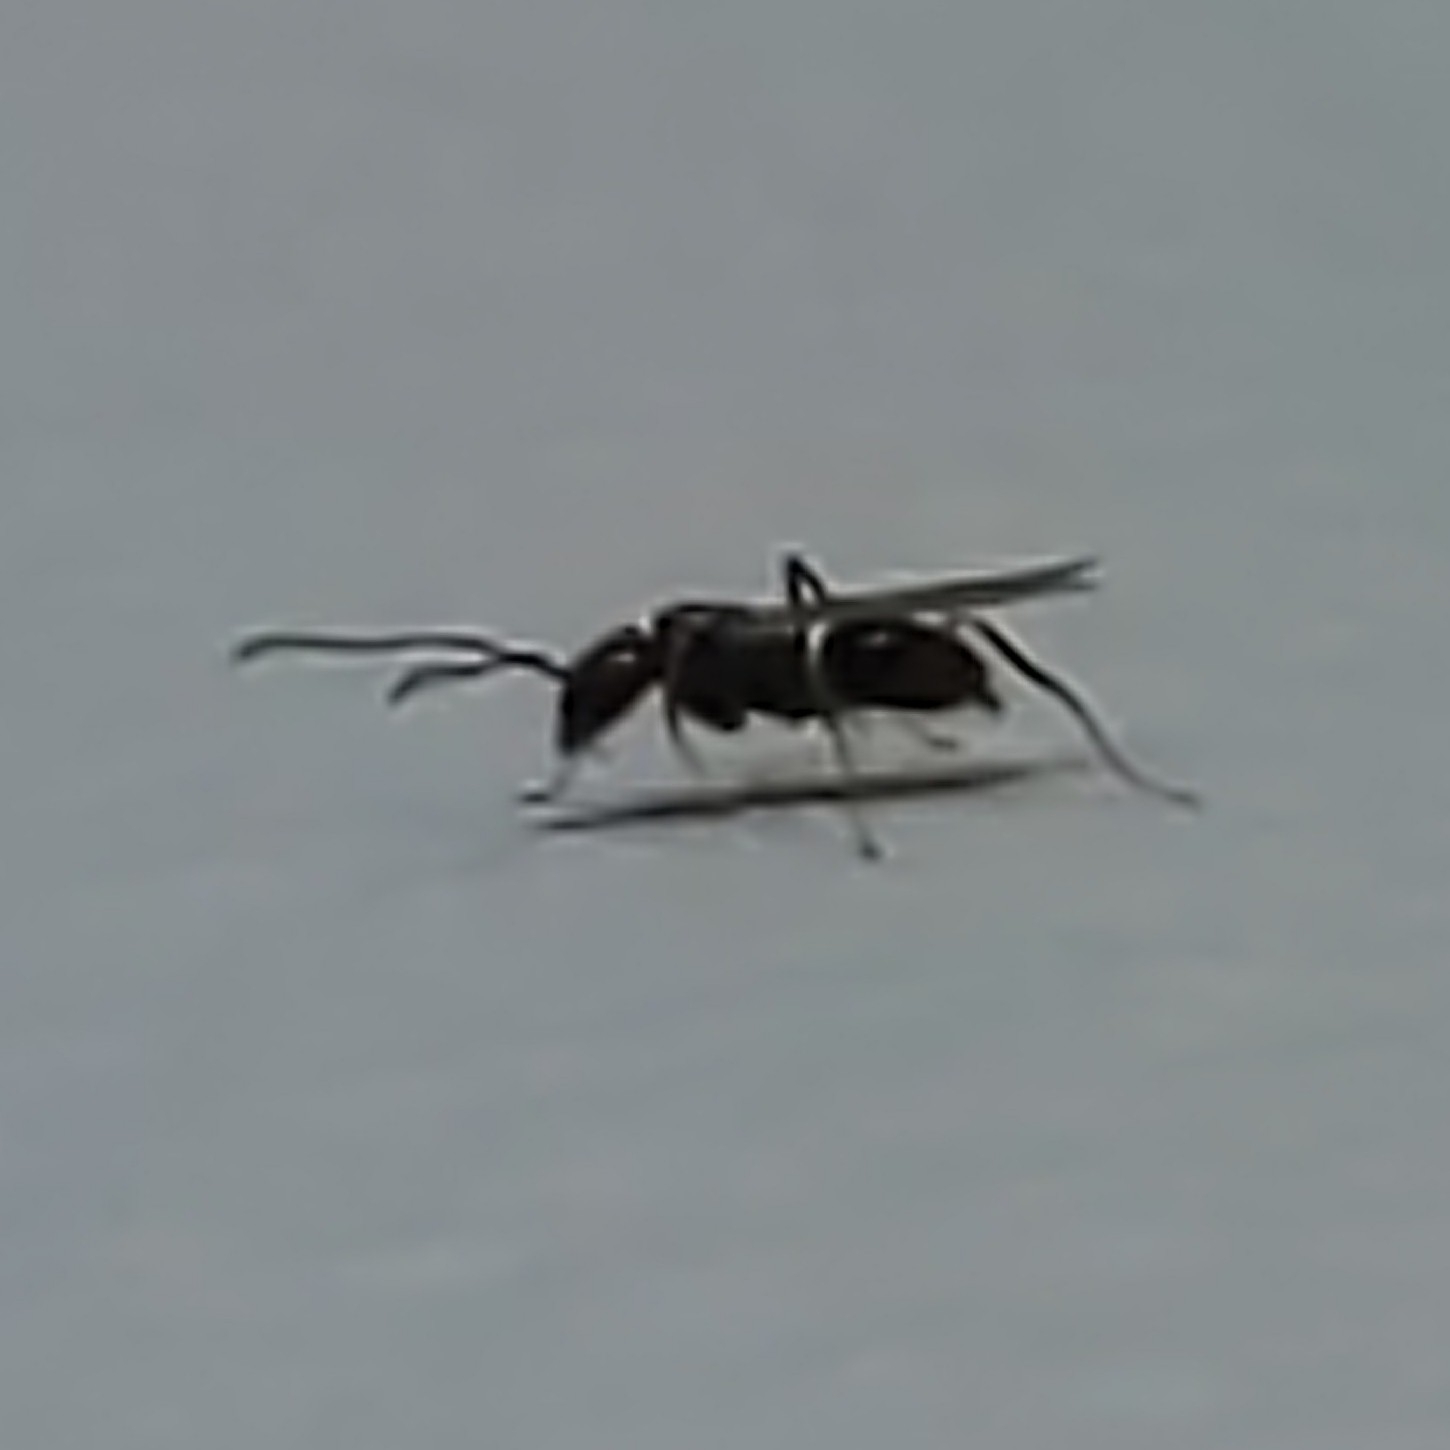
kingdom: Animalia
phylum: Arthropoda
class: Insecta
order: Hymenoptera
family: Formicidae
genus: Prenolepis
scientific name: Prenolepis imparis
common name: Small honey ant
